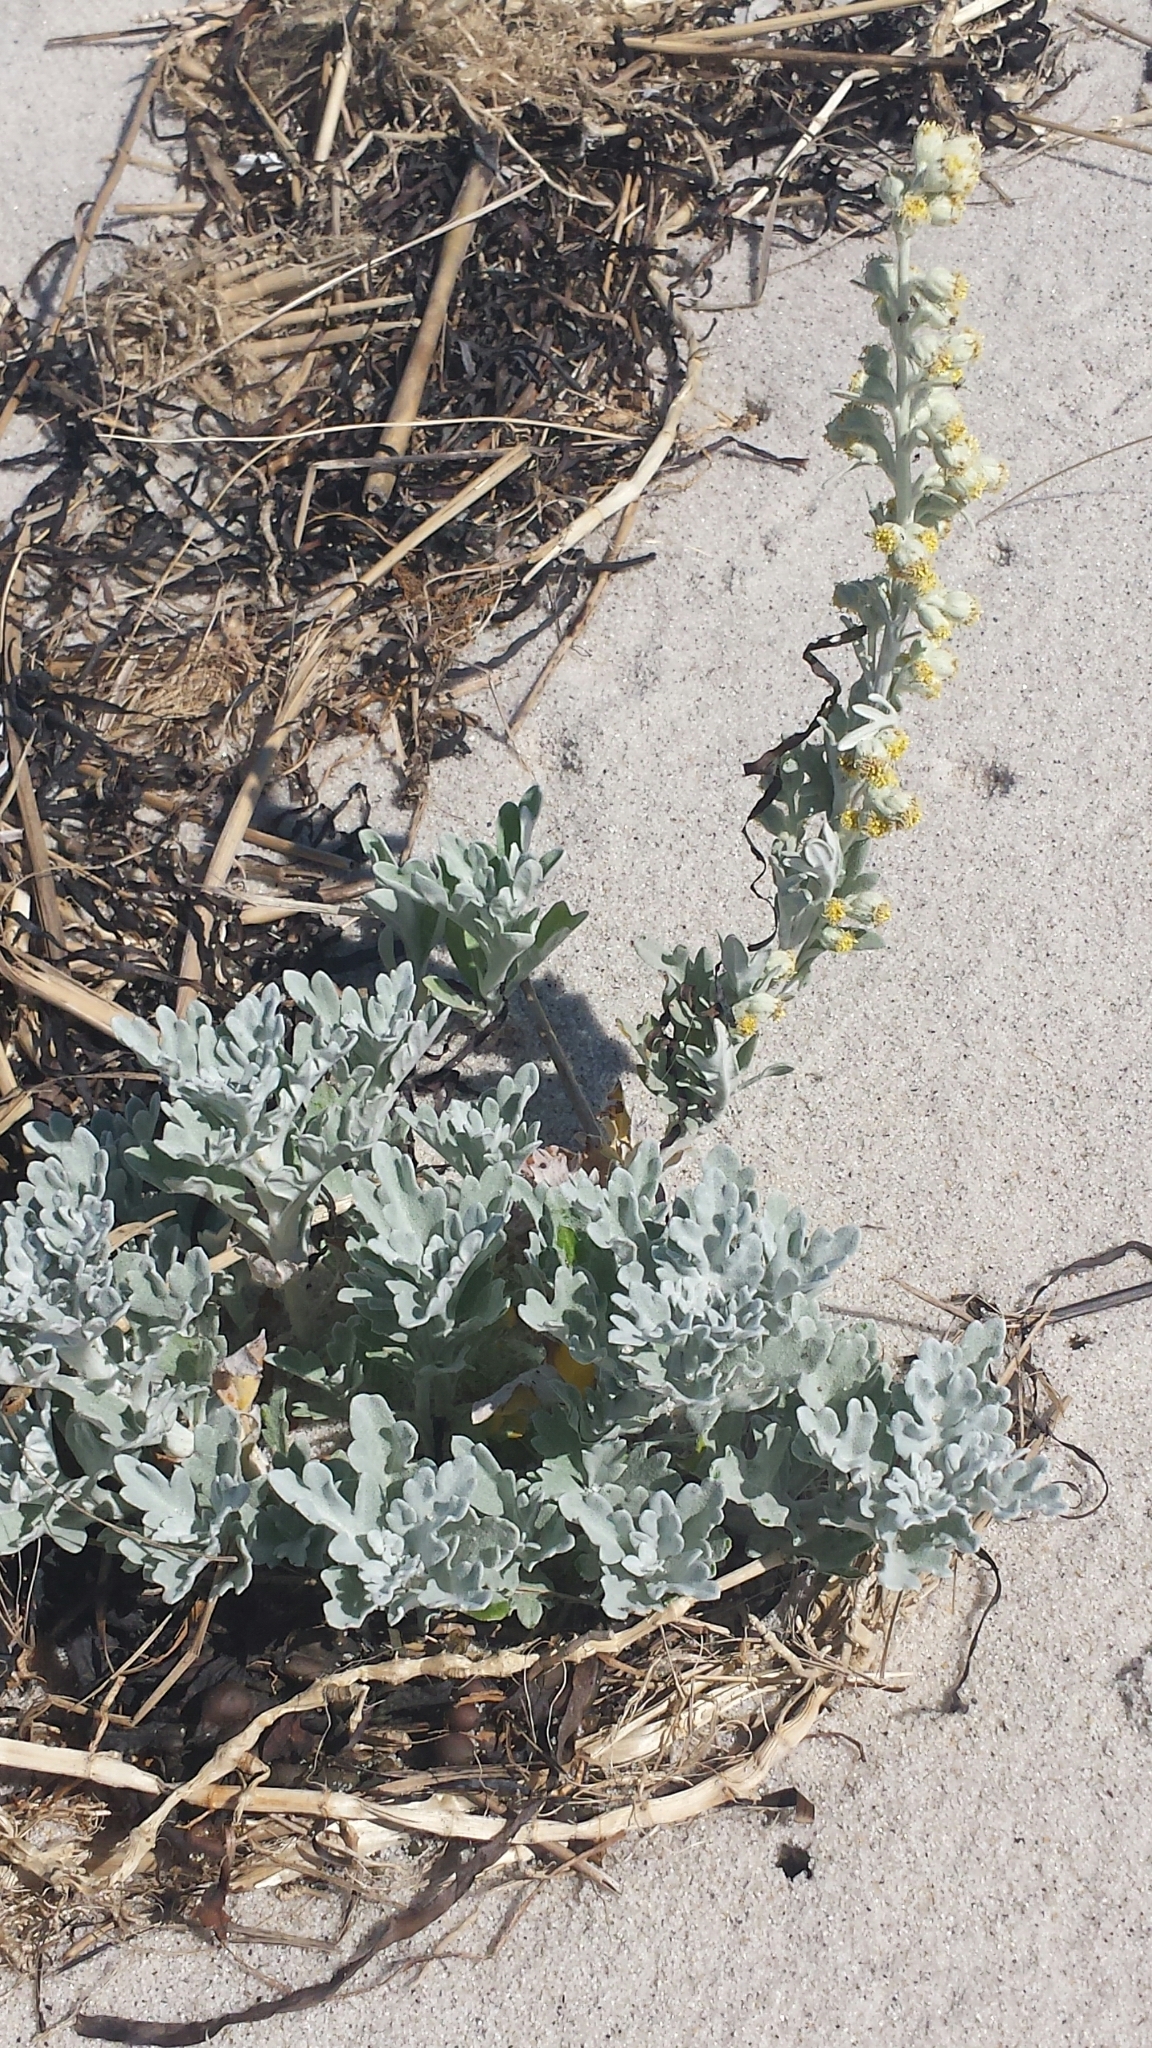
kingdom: Plantae
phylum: Tracheophyta
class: Magnoliopsida
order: Asterales
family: Asteraceae
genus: Artemisia
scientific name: Artemisia stelleriana
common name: Beach wormwood
